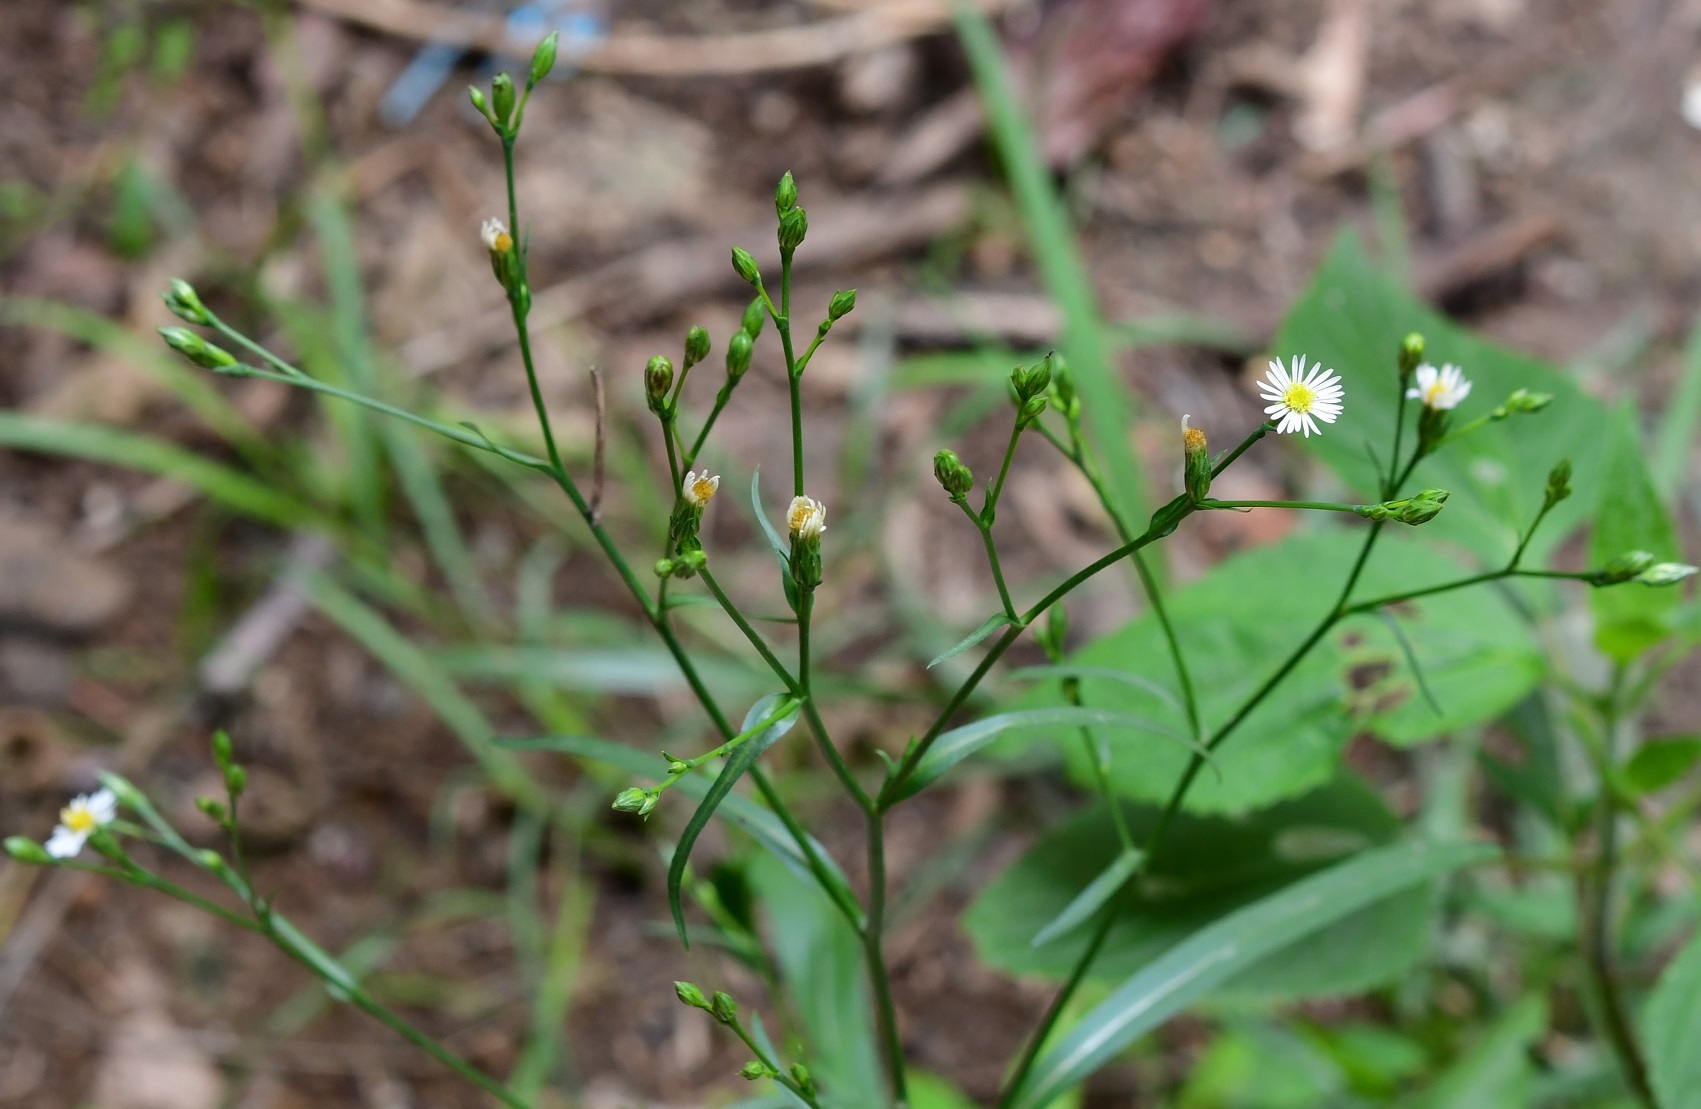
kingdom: Plantae
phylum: Tracheophyta
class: Magnoliopsida
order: Asterales
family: Asteraceae
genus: Symphyotrichum
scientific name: Symphyotrichum subulatum
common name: Annual saltmarsh aster
